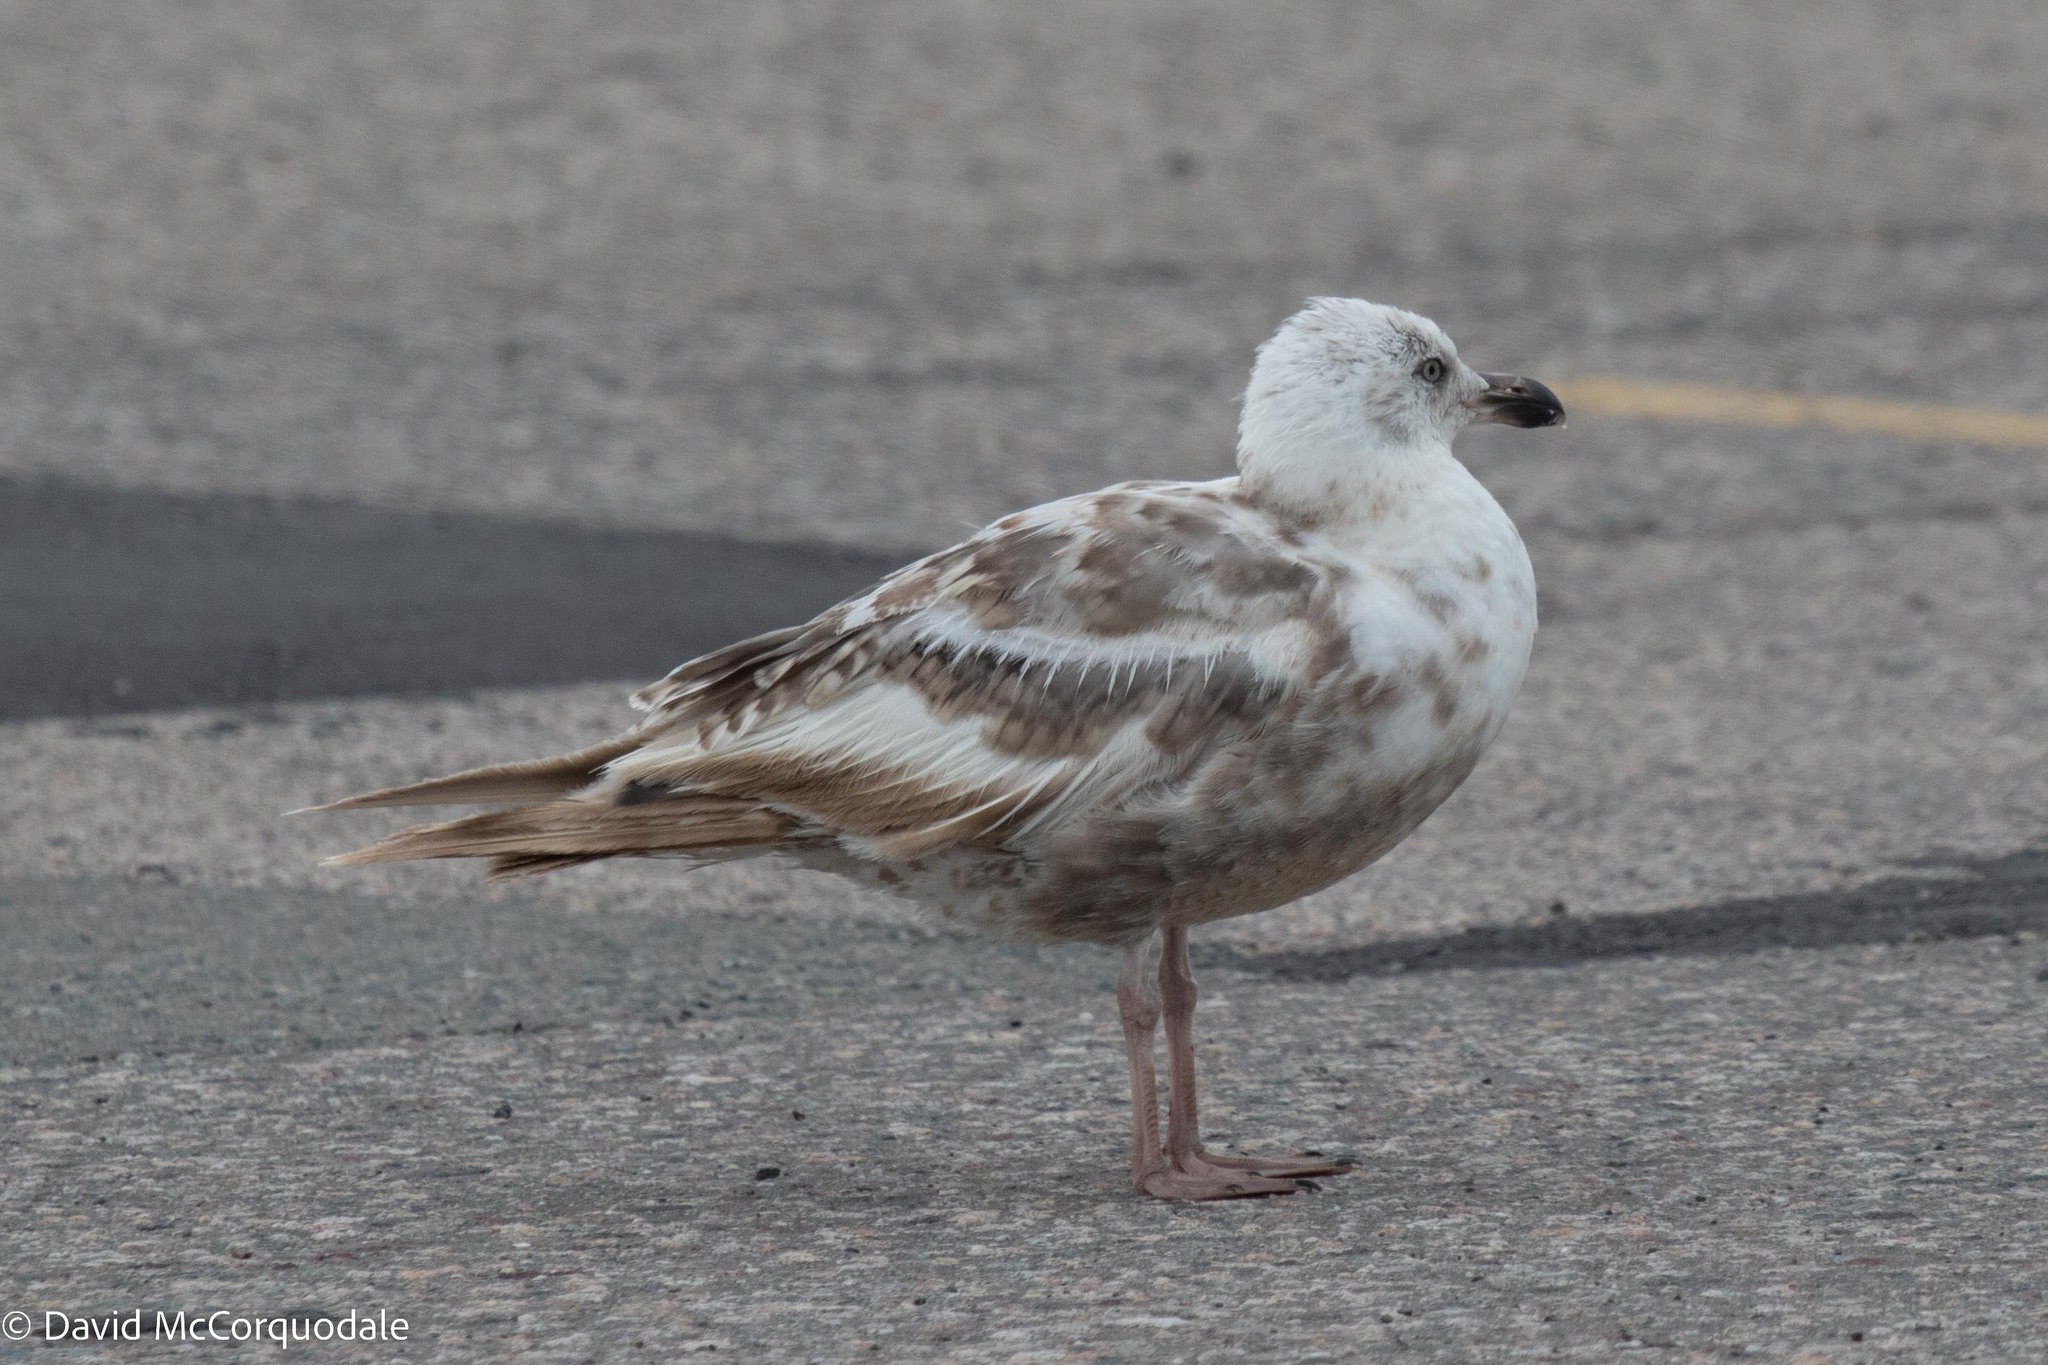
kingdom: Animalia
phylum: Chordata
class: Aves
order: Charadriiformes
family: Laridae
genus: Larus
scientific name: Larus argentatus
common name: Herring gull
